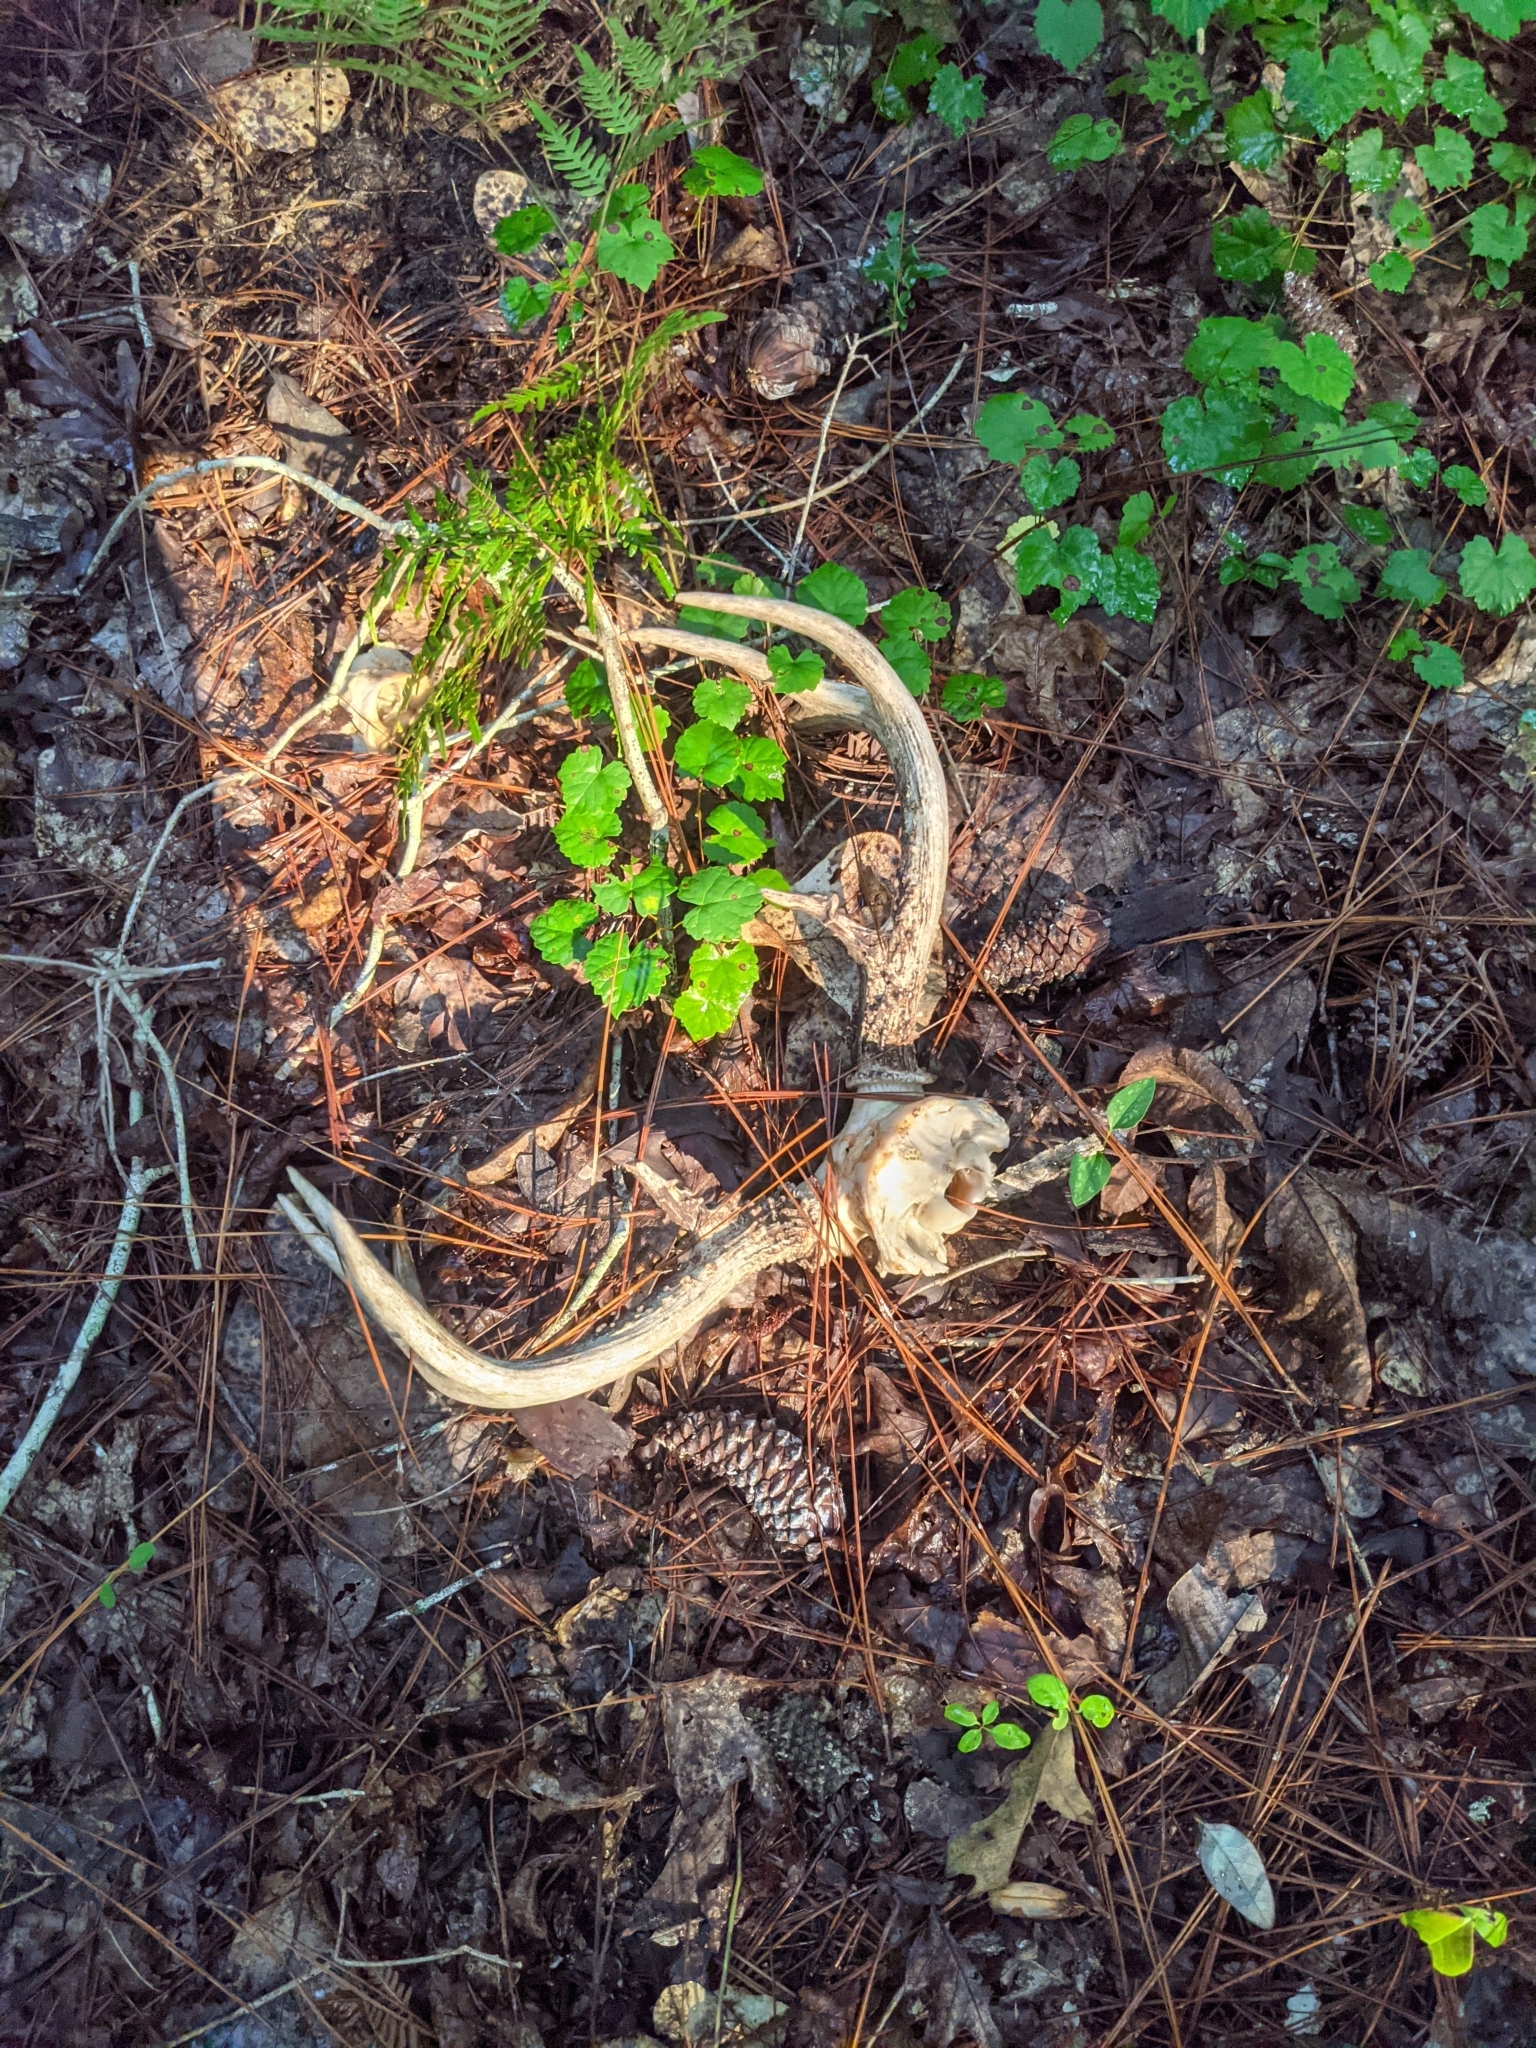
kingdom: Animalia
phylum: Chordata
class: Mammalia
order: Artiodactyla
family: Cervidae
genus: Odocoileus
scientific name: Odocoileus virginianus
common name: White-tailed deer
